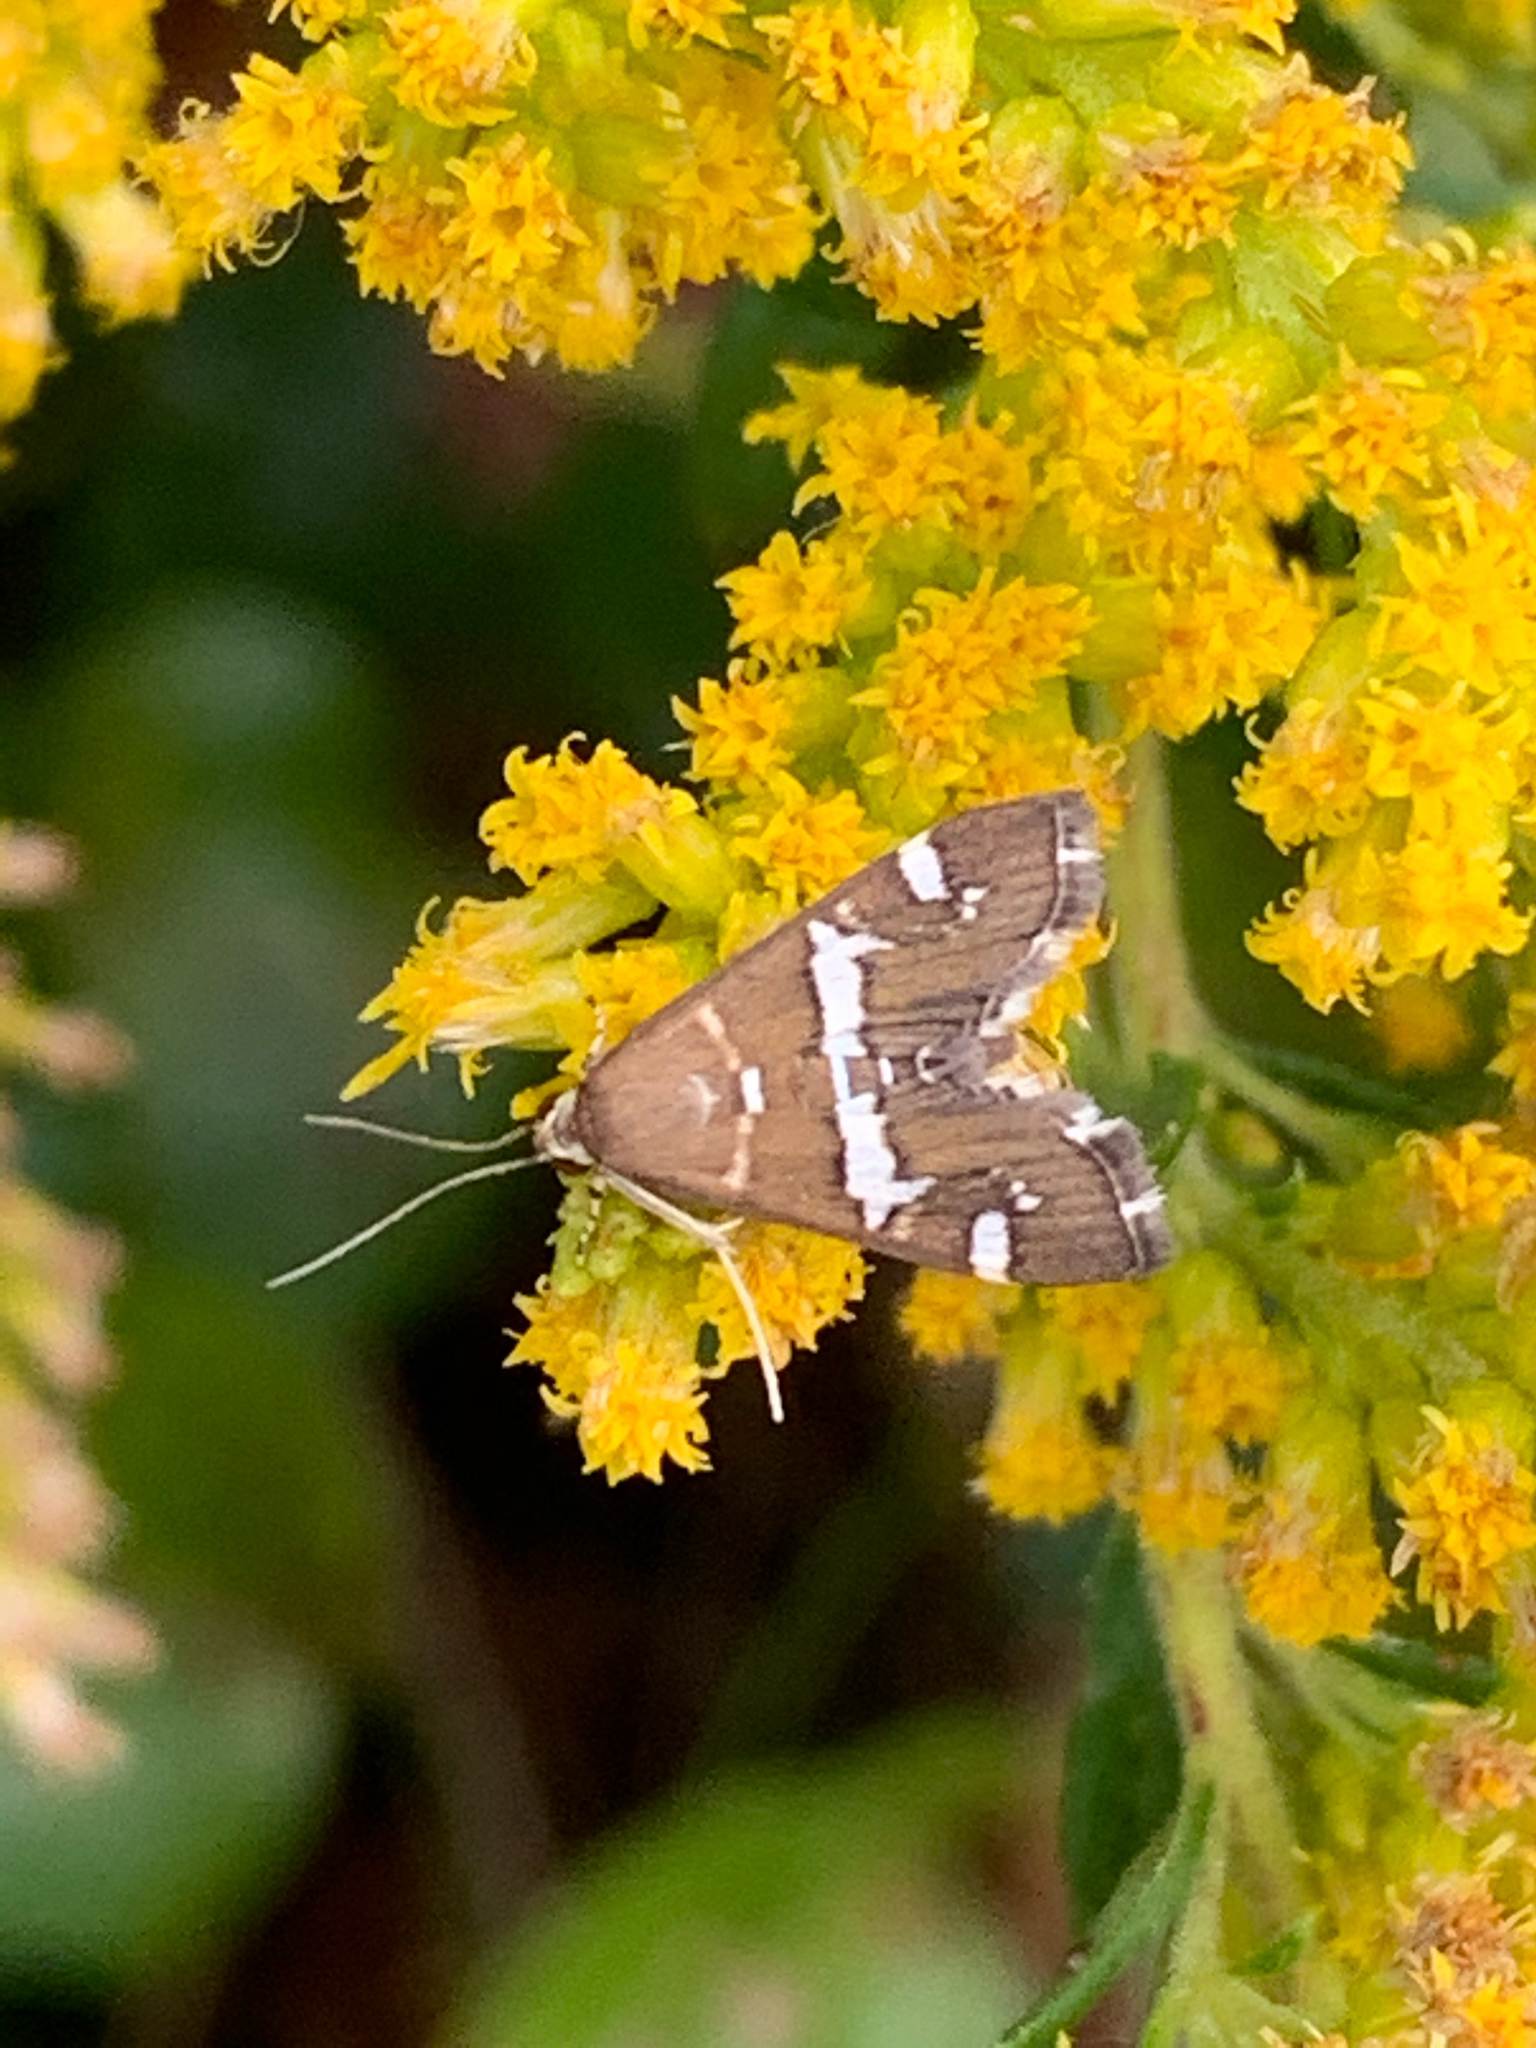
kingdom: Animalia
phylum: Arthropoda
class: Insecta
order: Lepidoptera
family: Crambidae
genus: Spoladea
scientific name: Spoladea recurvalis
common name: Beet webworm moth
